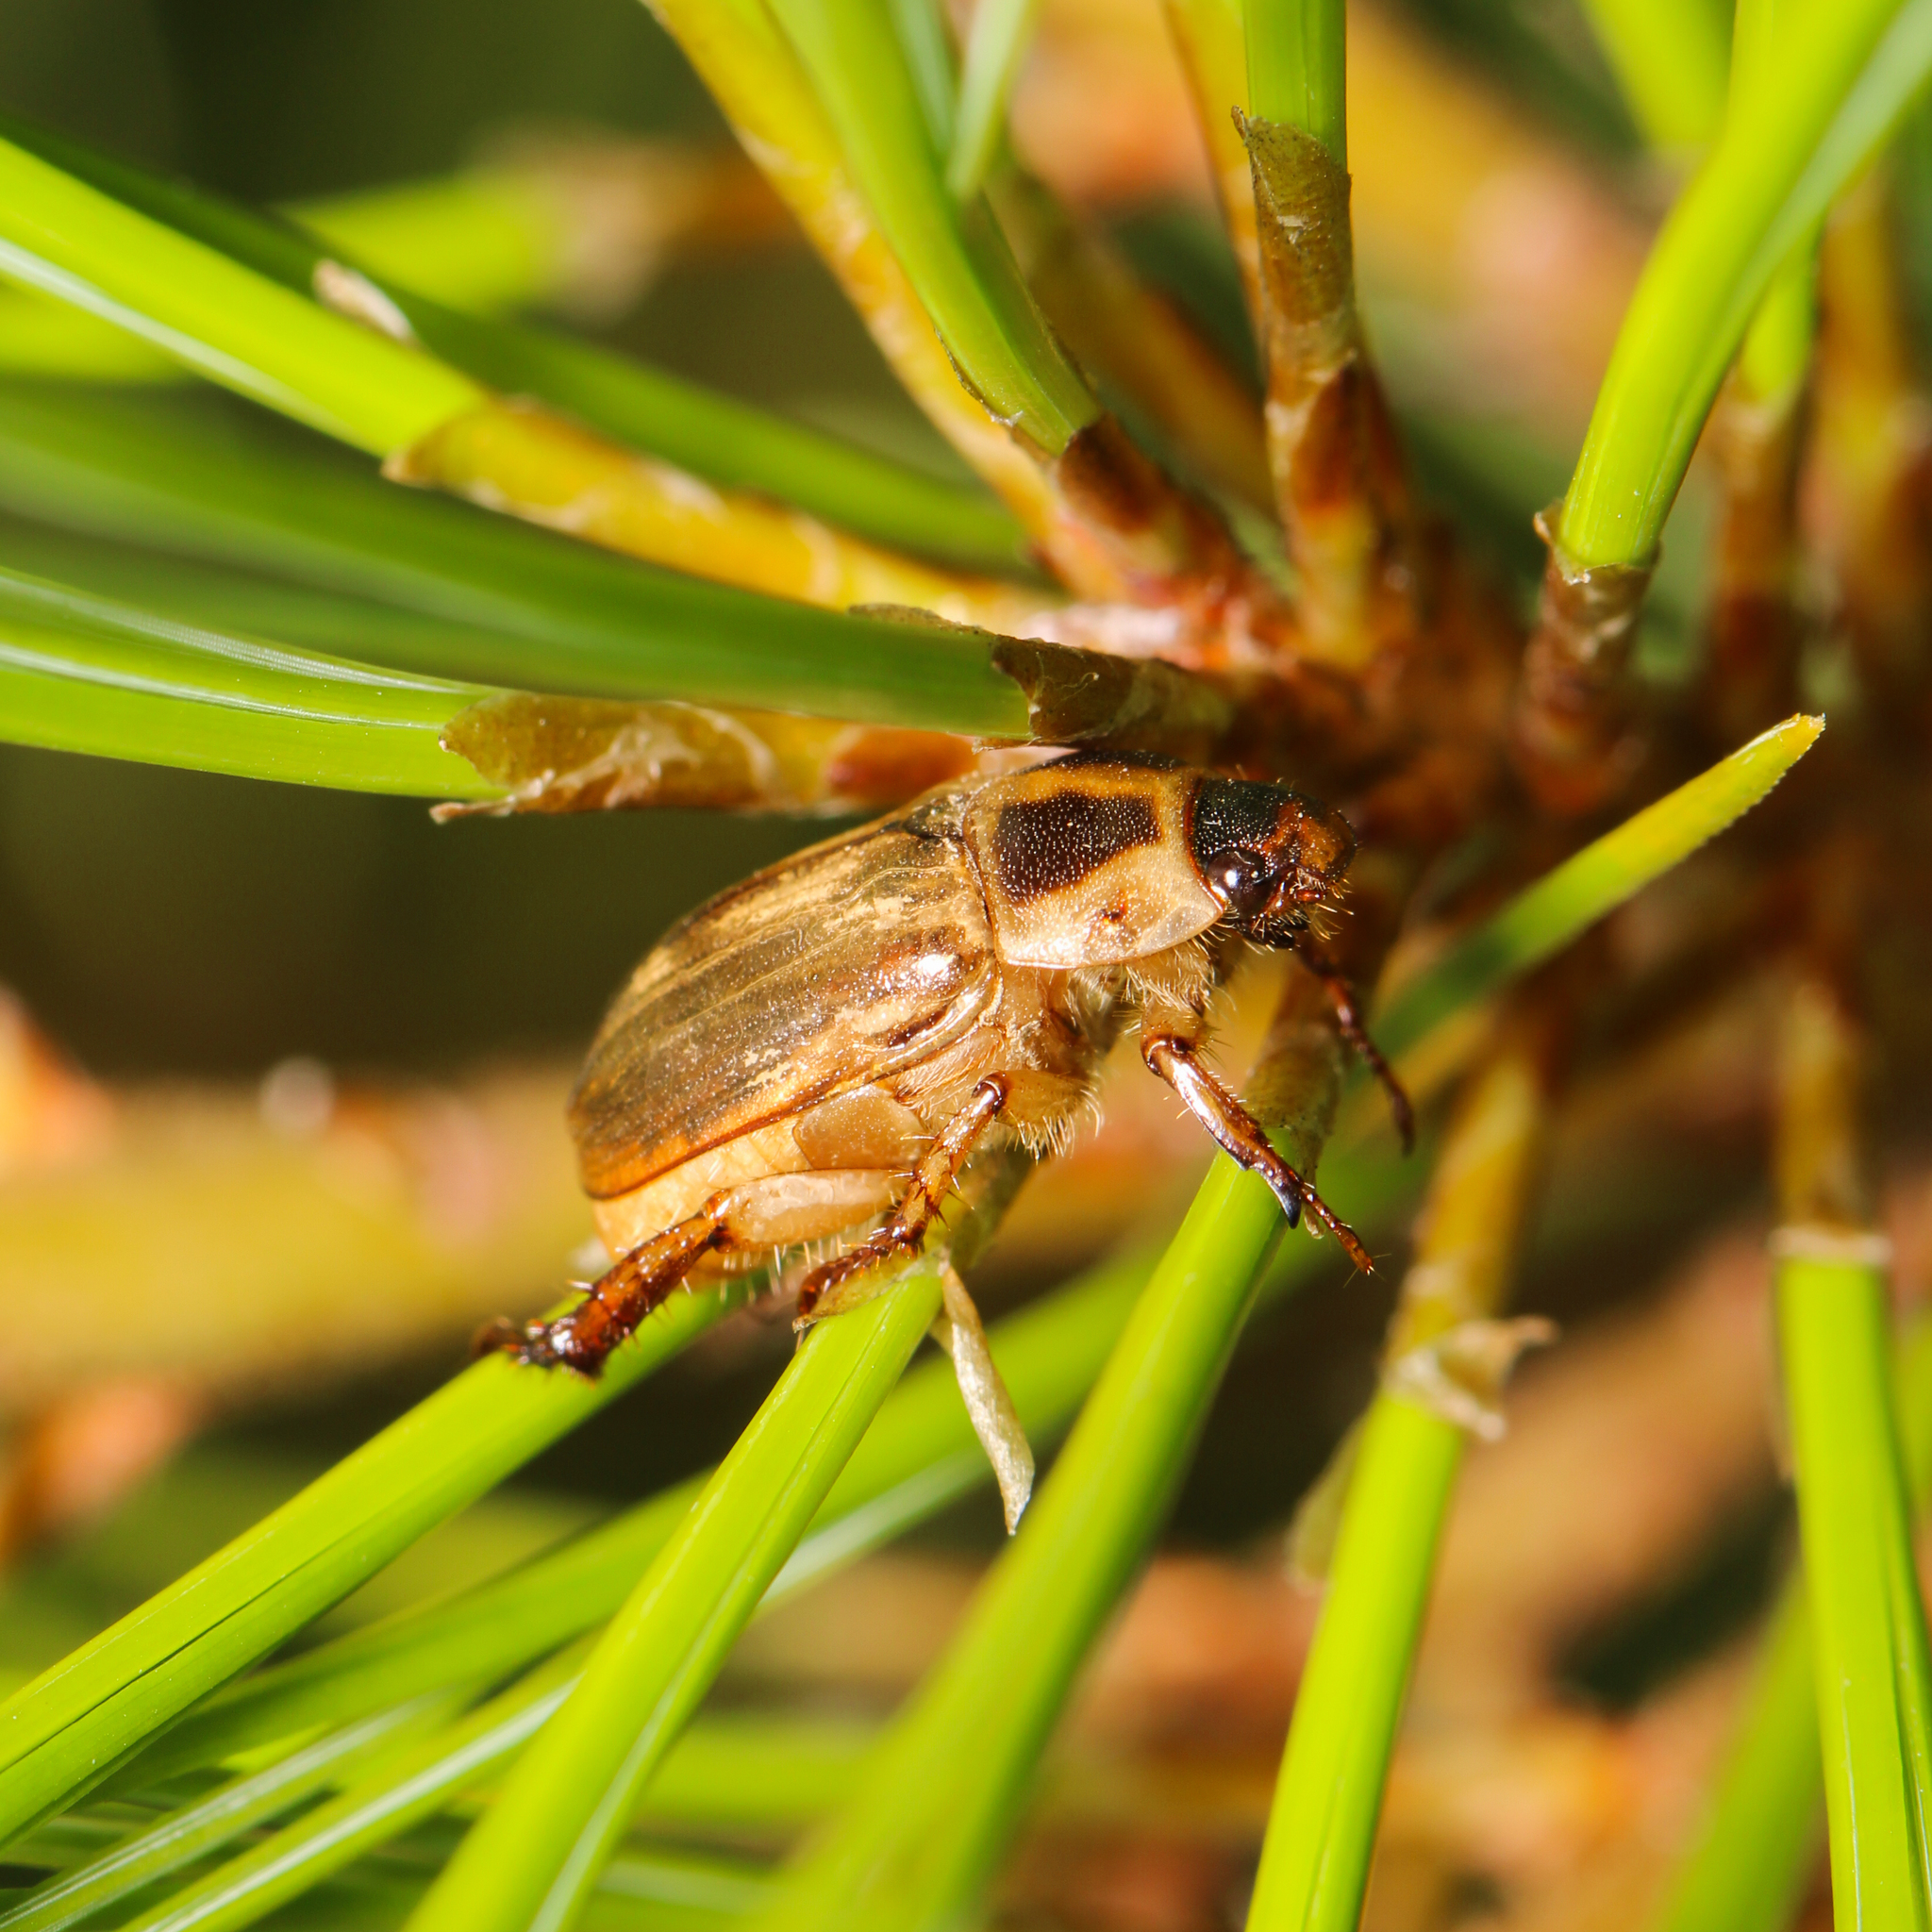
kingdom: Animalia
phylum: Arthropoda
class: Insecta
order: Coleoptera
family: Scarabaeidae
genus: Exomala
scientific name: Exomala orientalis
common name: Oriental beetle
